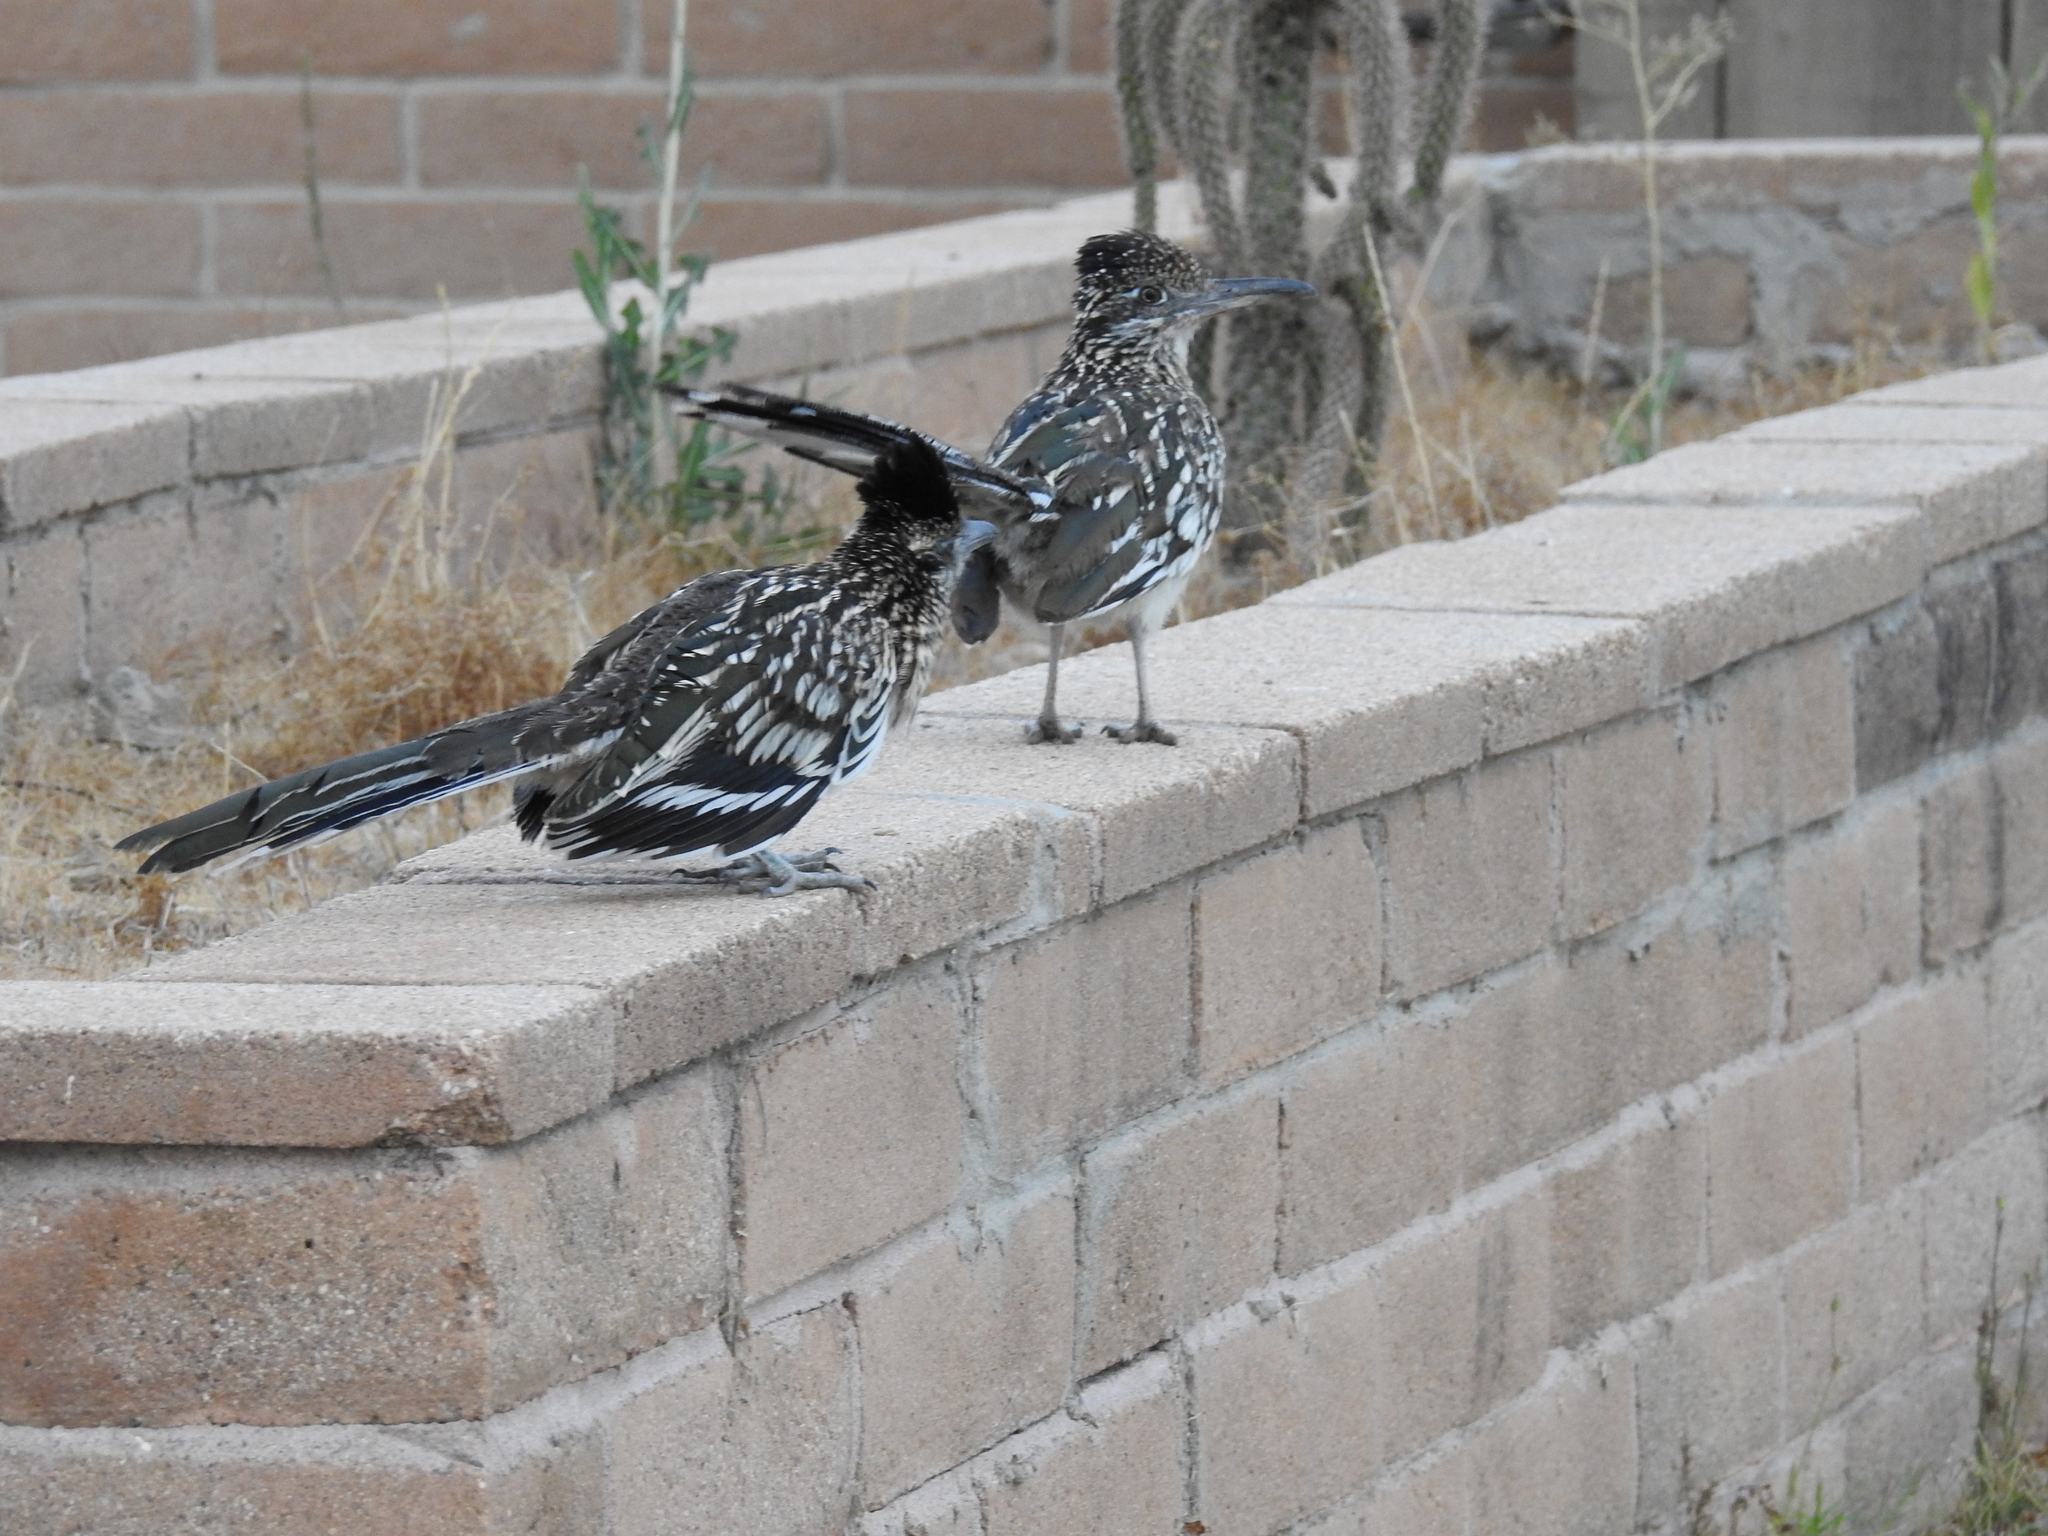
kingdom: Animalia
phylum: Chordata
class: Aves
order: Cuculiformes
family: Cuculidae
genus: Geococcyx
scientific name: Geococcyx californianus
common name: Greater roadrunner
